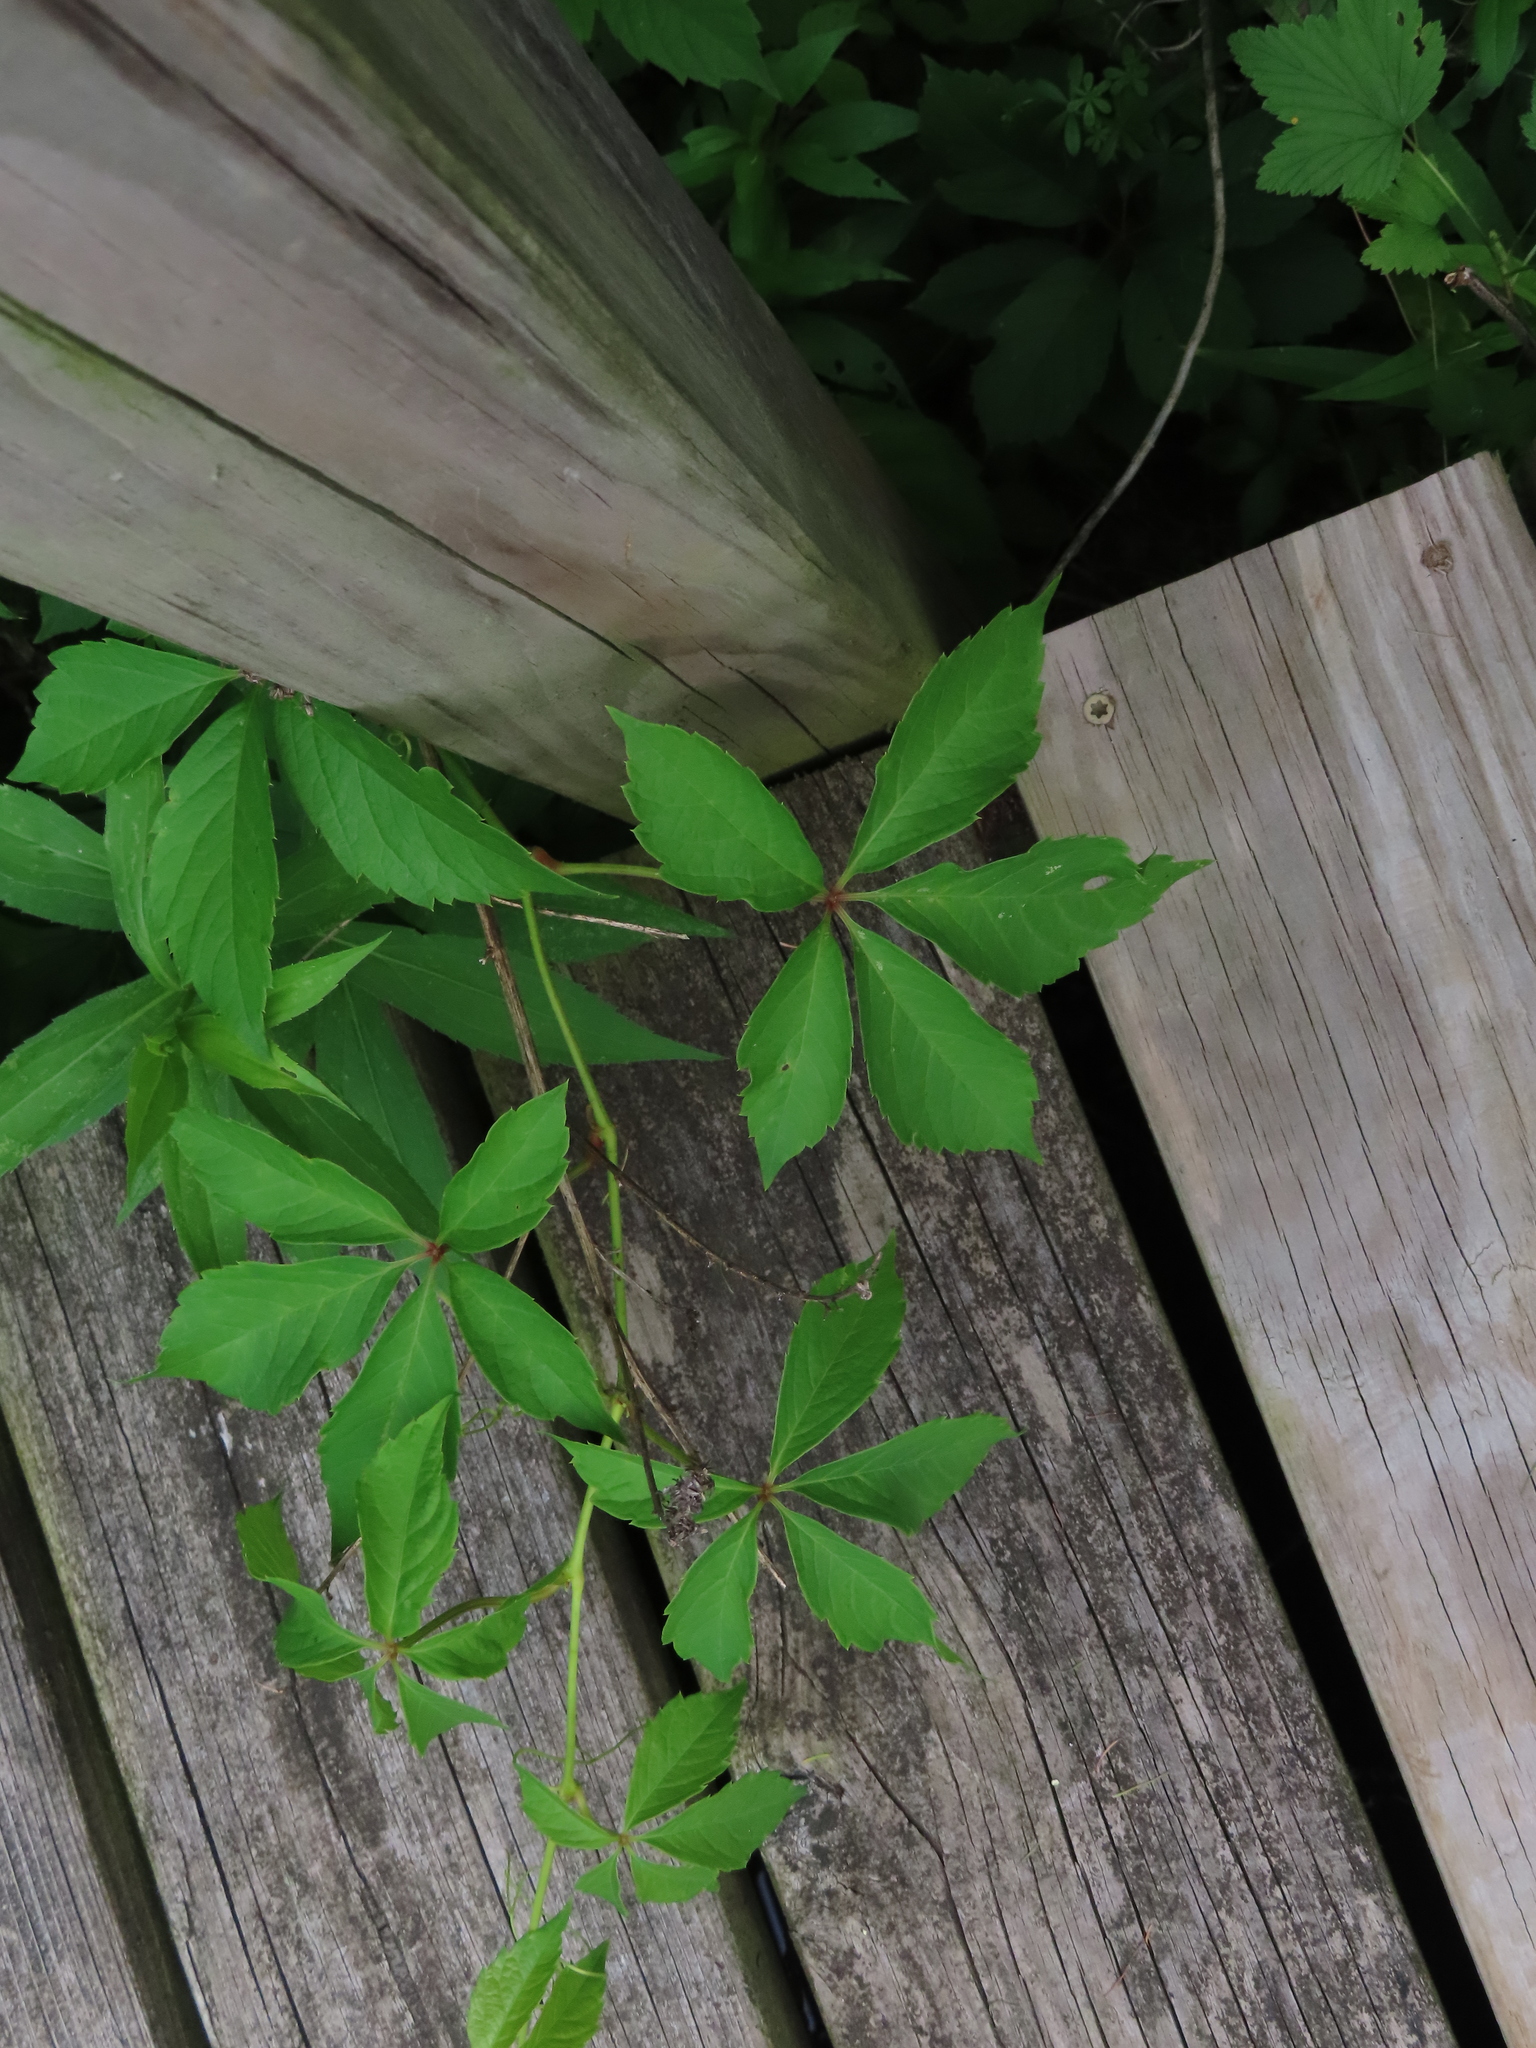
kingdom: Plantae
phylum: Tracheophyta
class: Magnoliopsida
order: Vitales
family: Vitaceae
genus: Parthenocissus
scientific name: Parthenocissus quinquefolia
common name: Virginia-creeper
